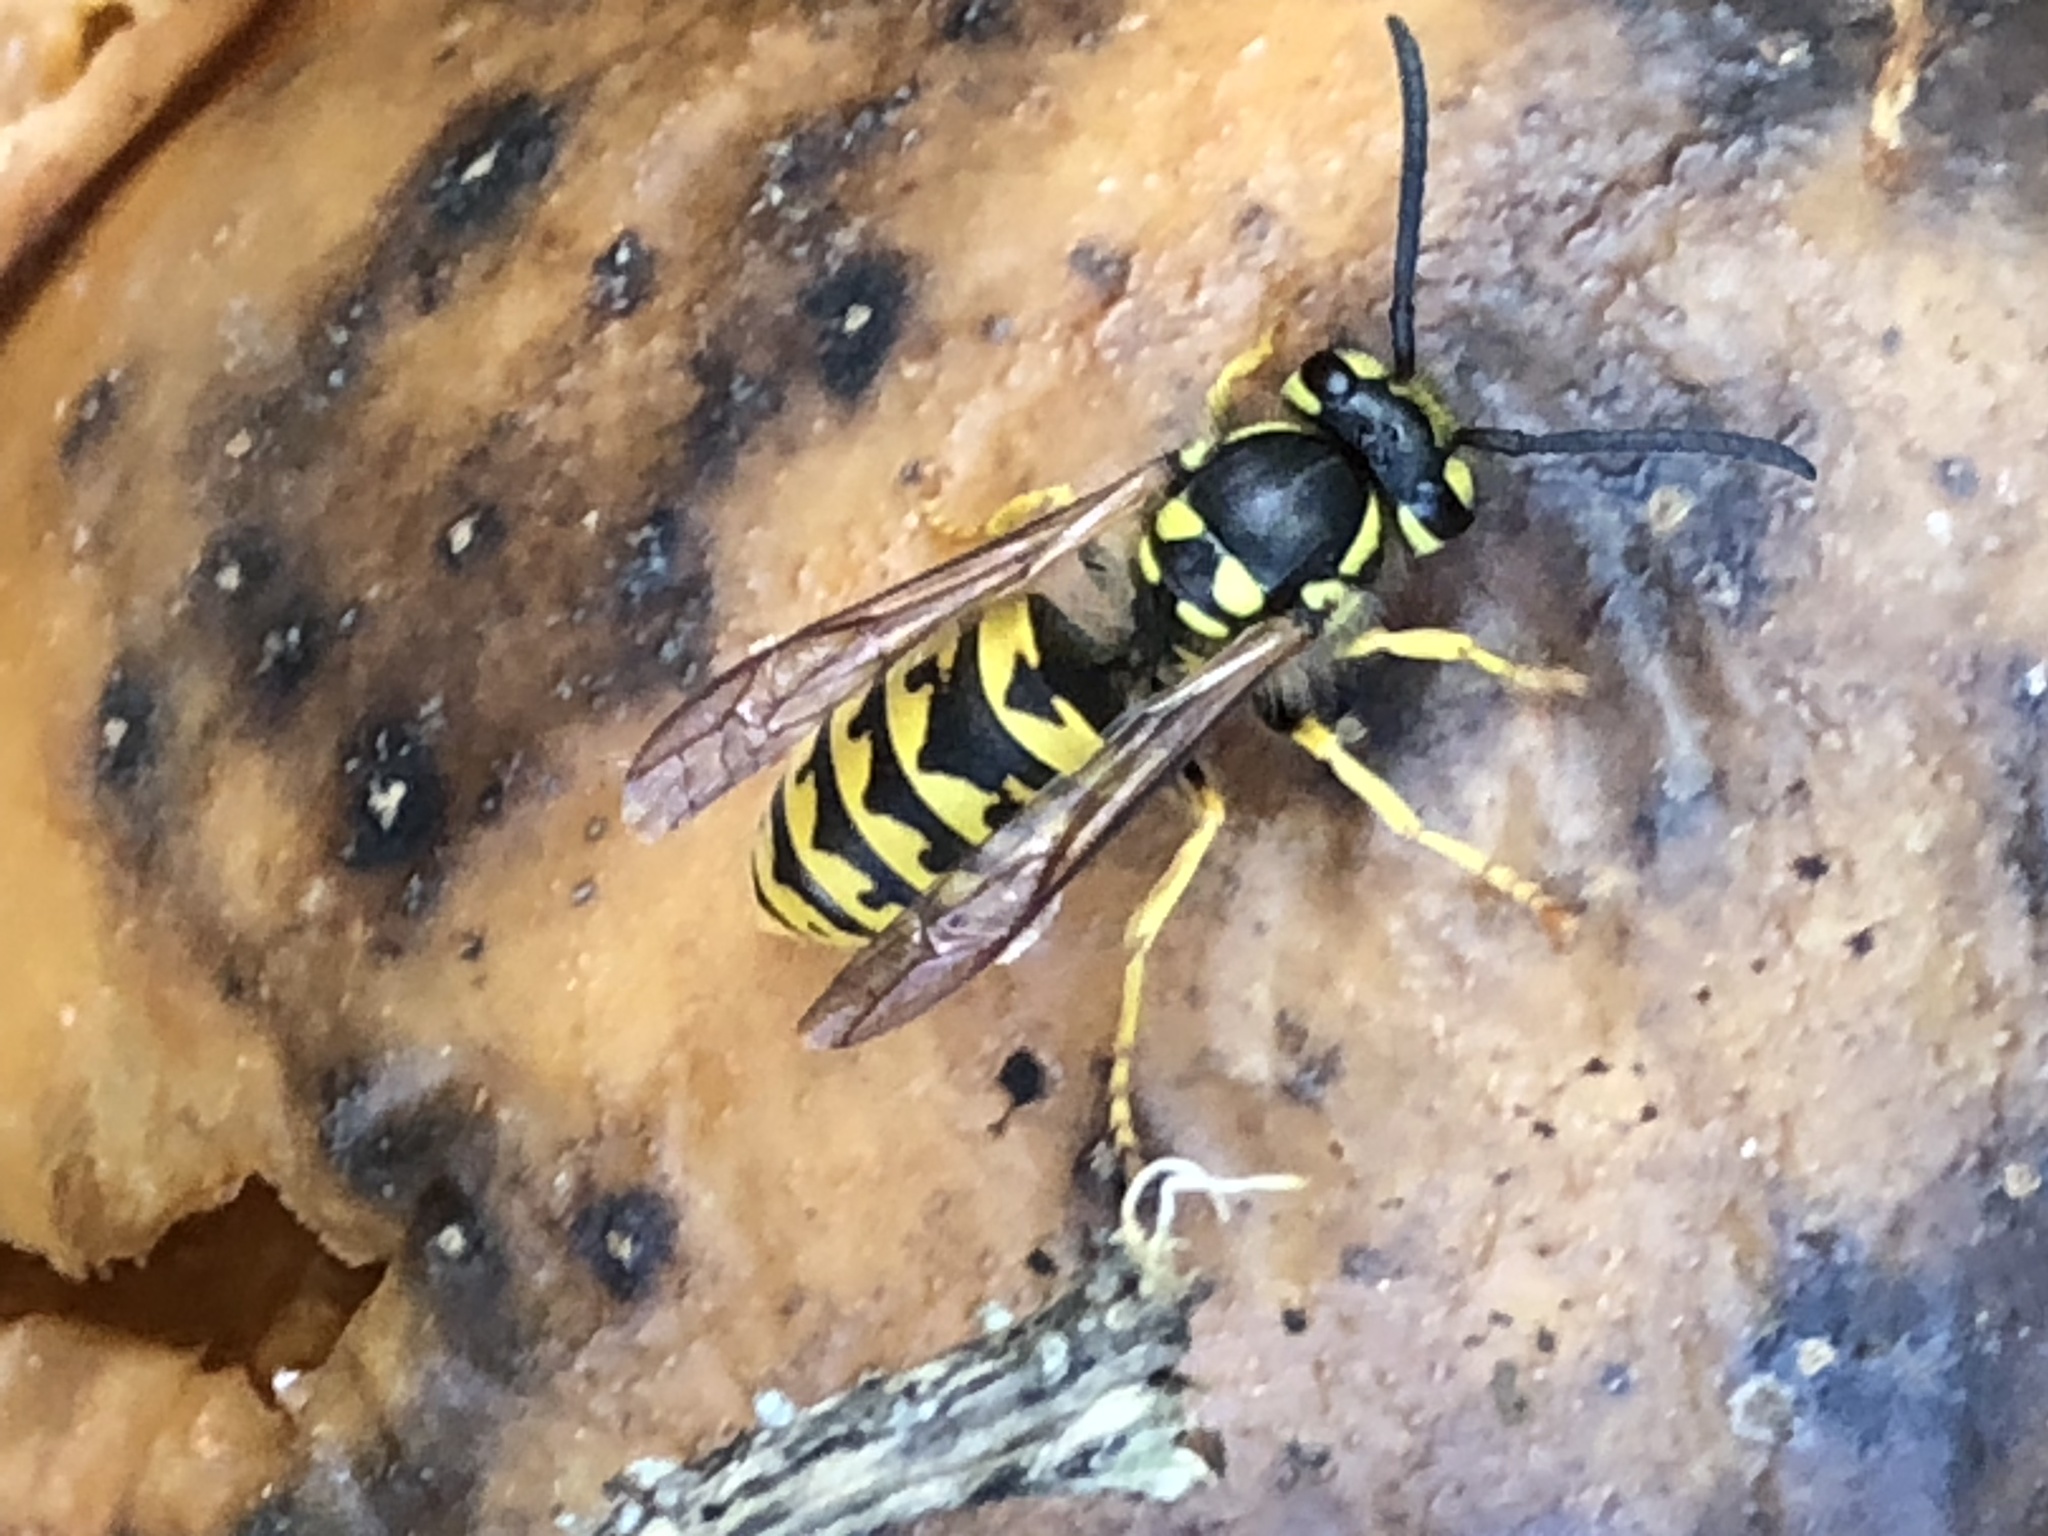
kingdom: Animalia
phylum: Arthropoda
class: Insecta
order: Hymenoptera
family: Vespidae
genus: Vespula
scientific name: Vespula germanica
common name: German wasp
